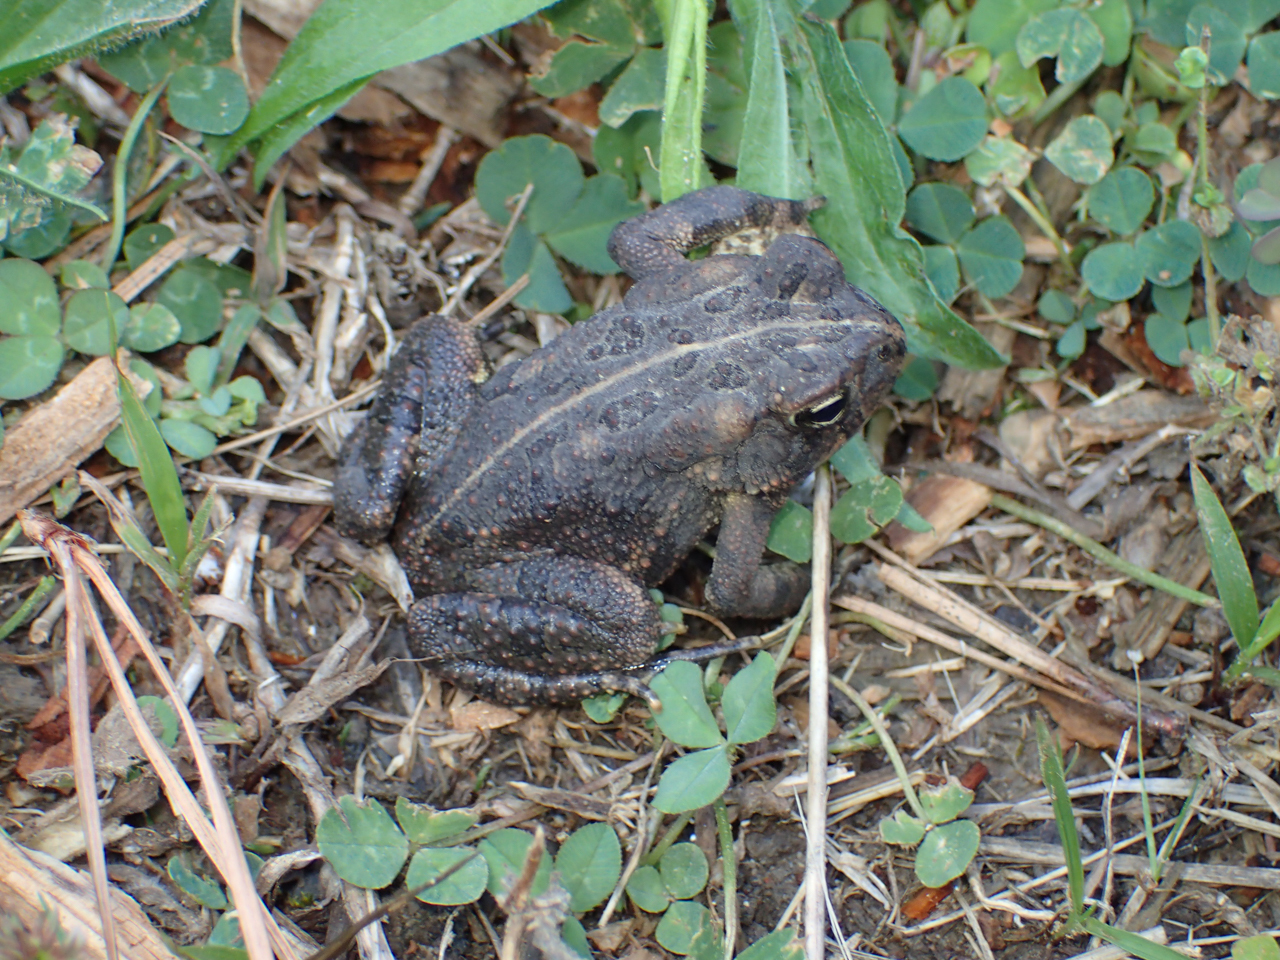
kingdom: Animalia
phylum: Chordata
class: Amphibia
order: Anura
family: Bufonidae
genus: Anaxyrus
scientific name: Anaxyrus americanus
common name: American toad
